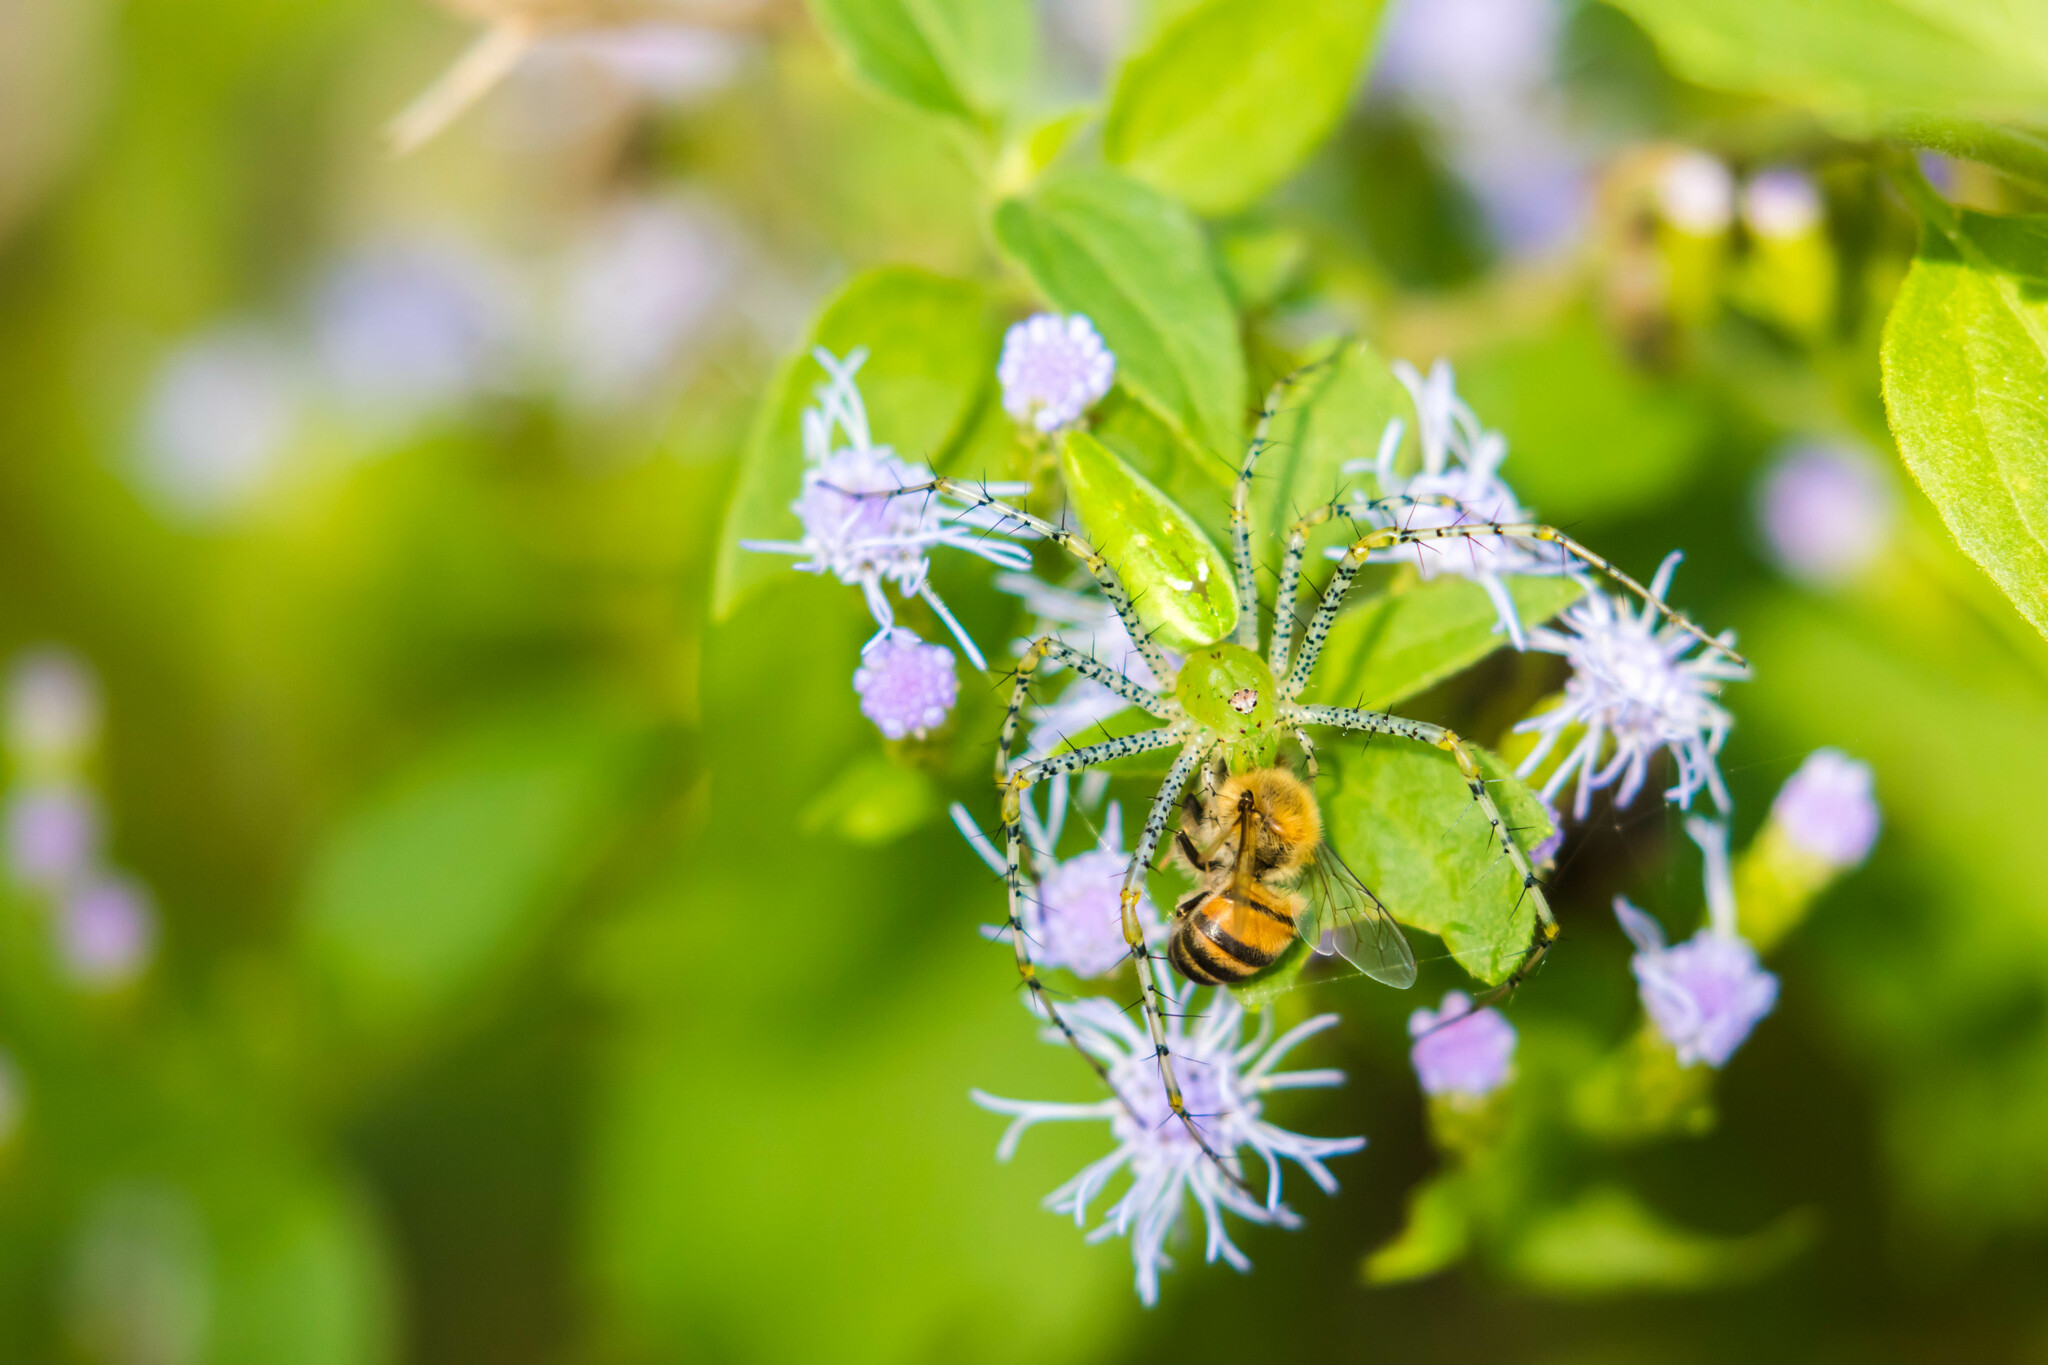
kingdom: Animalia
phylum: Arthropoda
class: Arachnida
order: Araneae
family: Oxyopidae
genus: Peucetia
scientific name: Peucetia viridans
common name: Lynx spiders
